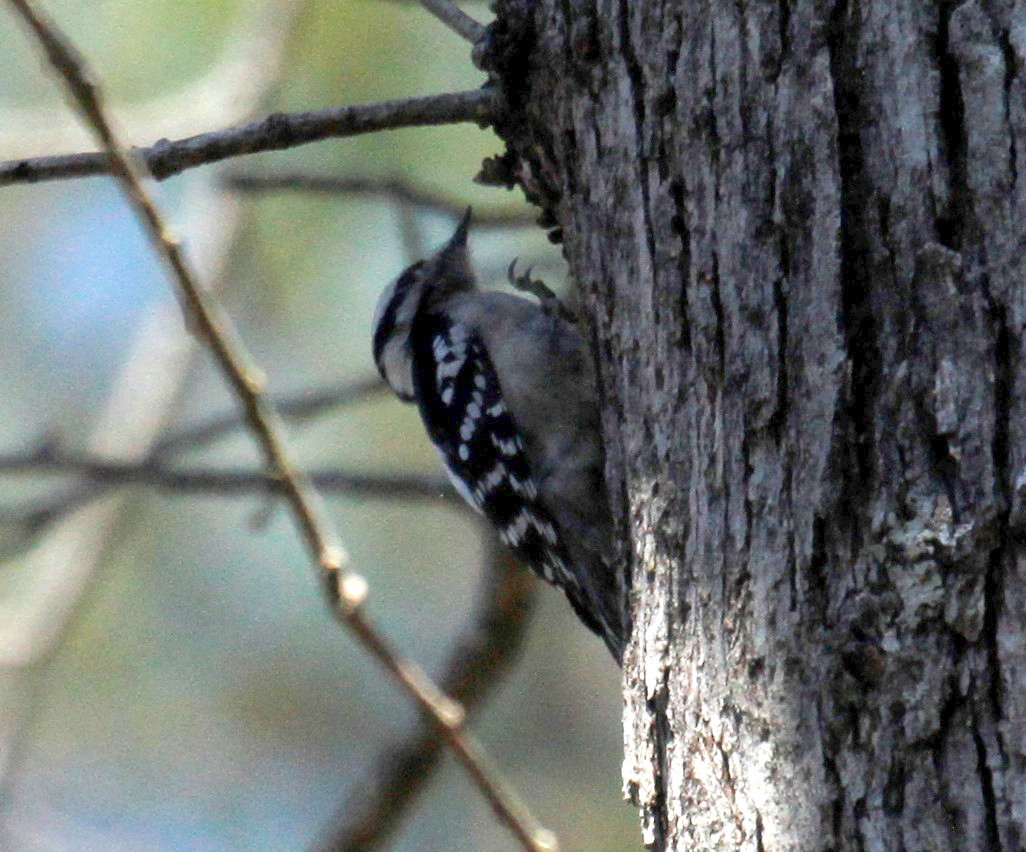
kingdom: Animalia
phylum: Chordata
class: Aves
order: Piciformes
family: Picidae
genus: Dryobates
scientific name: Dryobates pubescens
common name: Downy woodpecker
